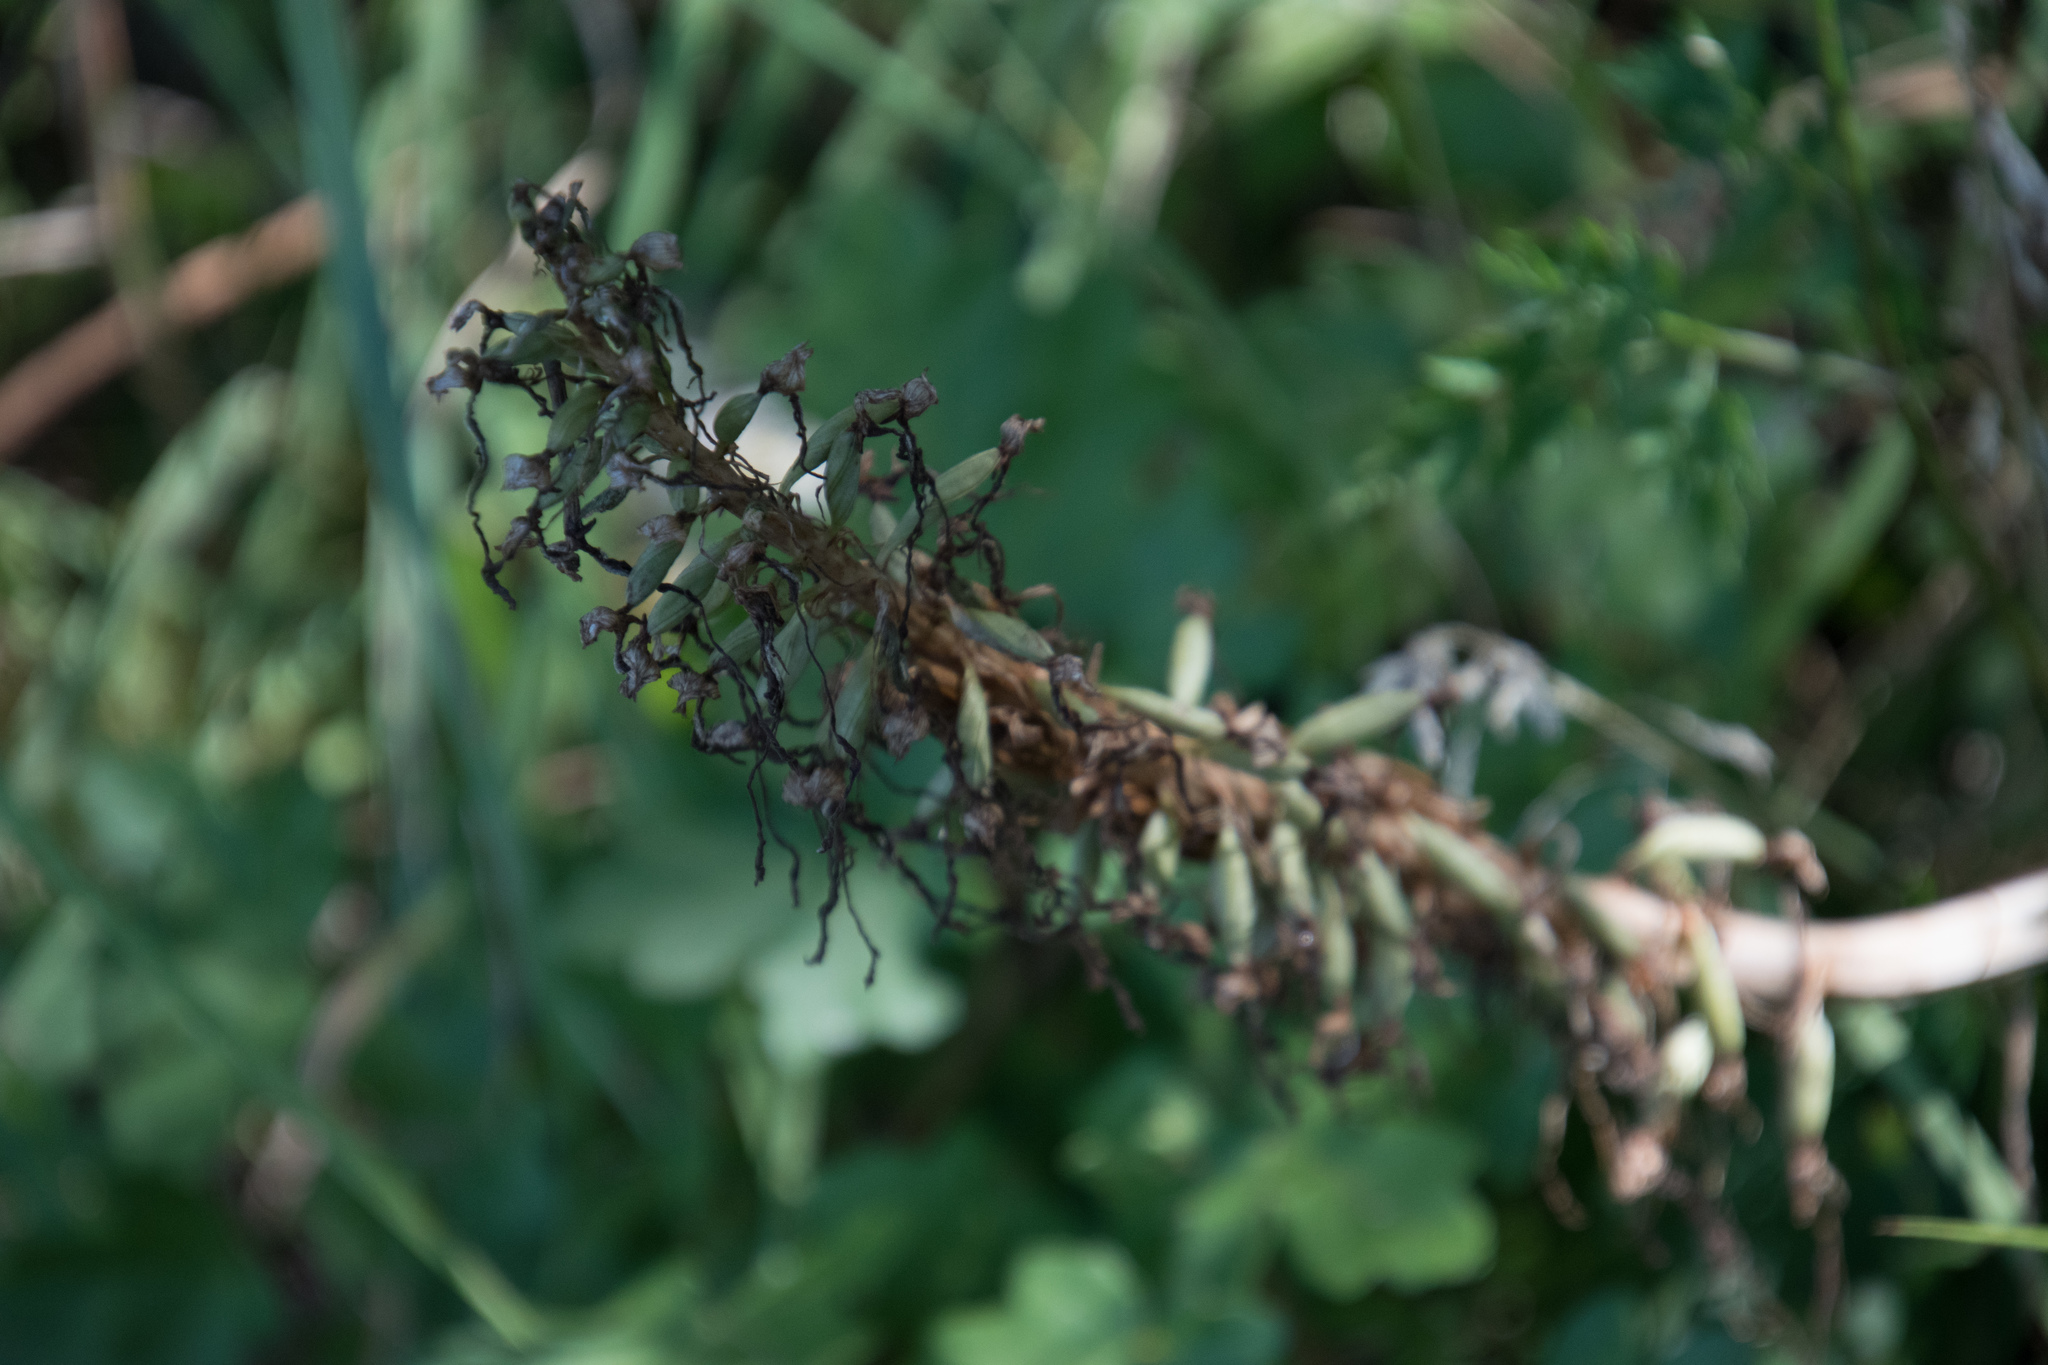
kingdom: Plantae
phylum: Tracheophyta
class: Liliopsida
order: Asparagales
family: Orchidaceae
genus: Himantoglossum
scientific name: Himantoglossum hircinum
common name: Lizard orchid
